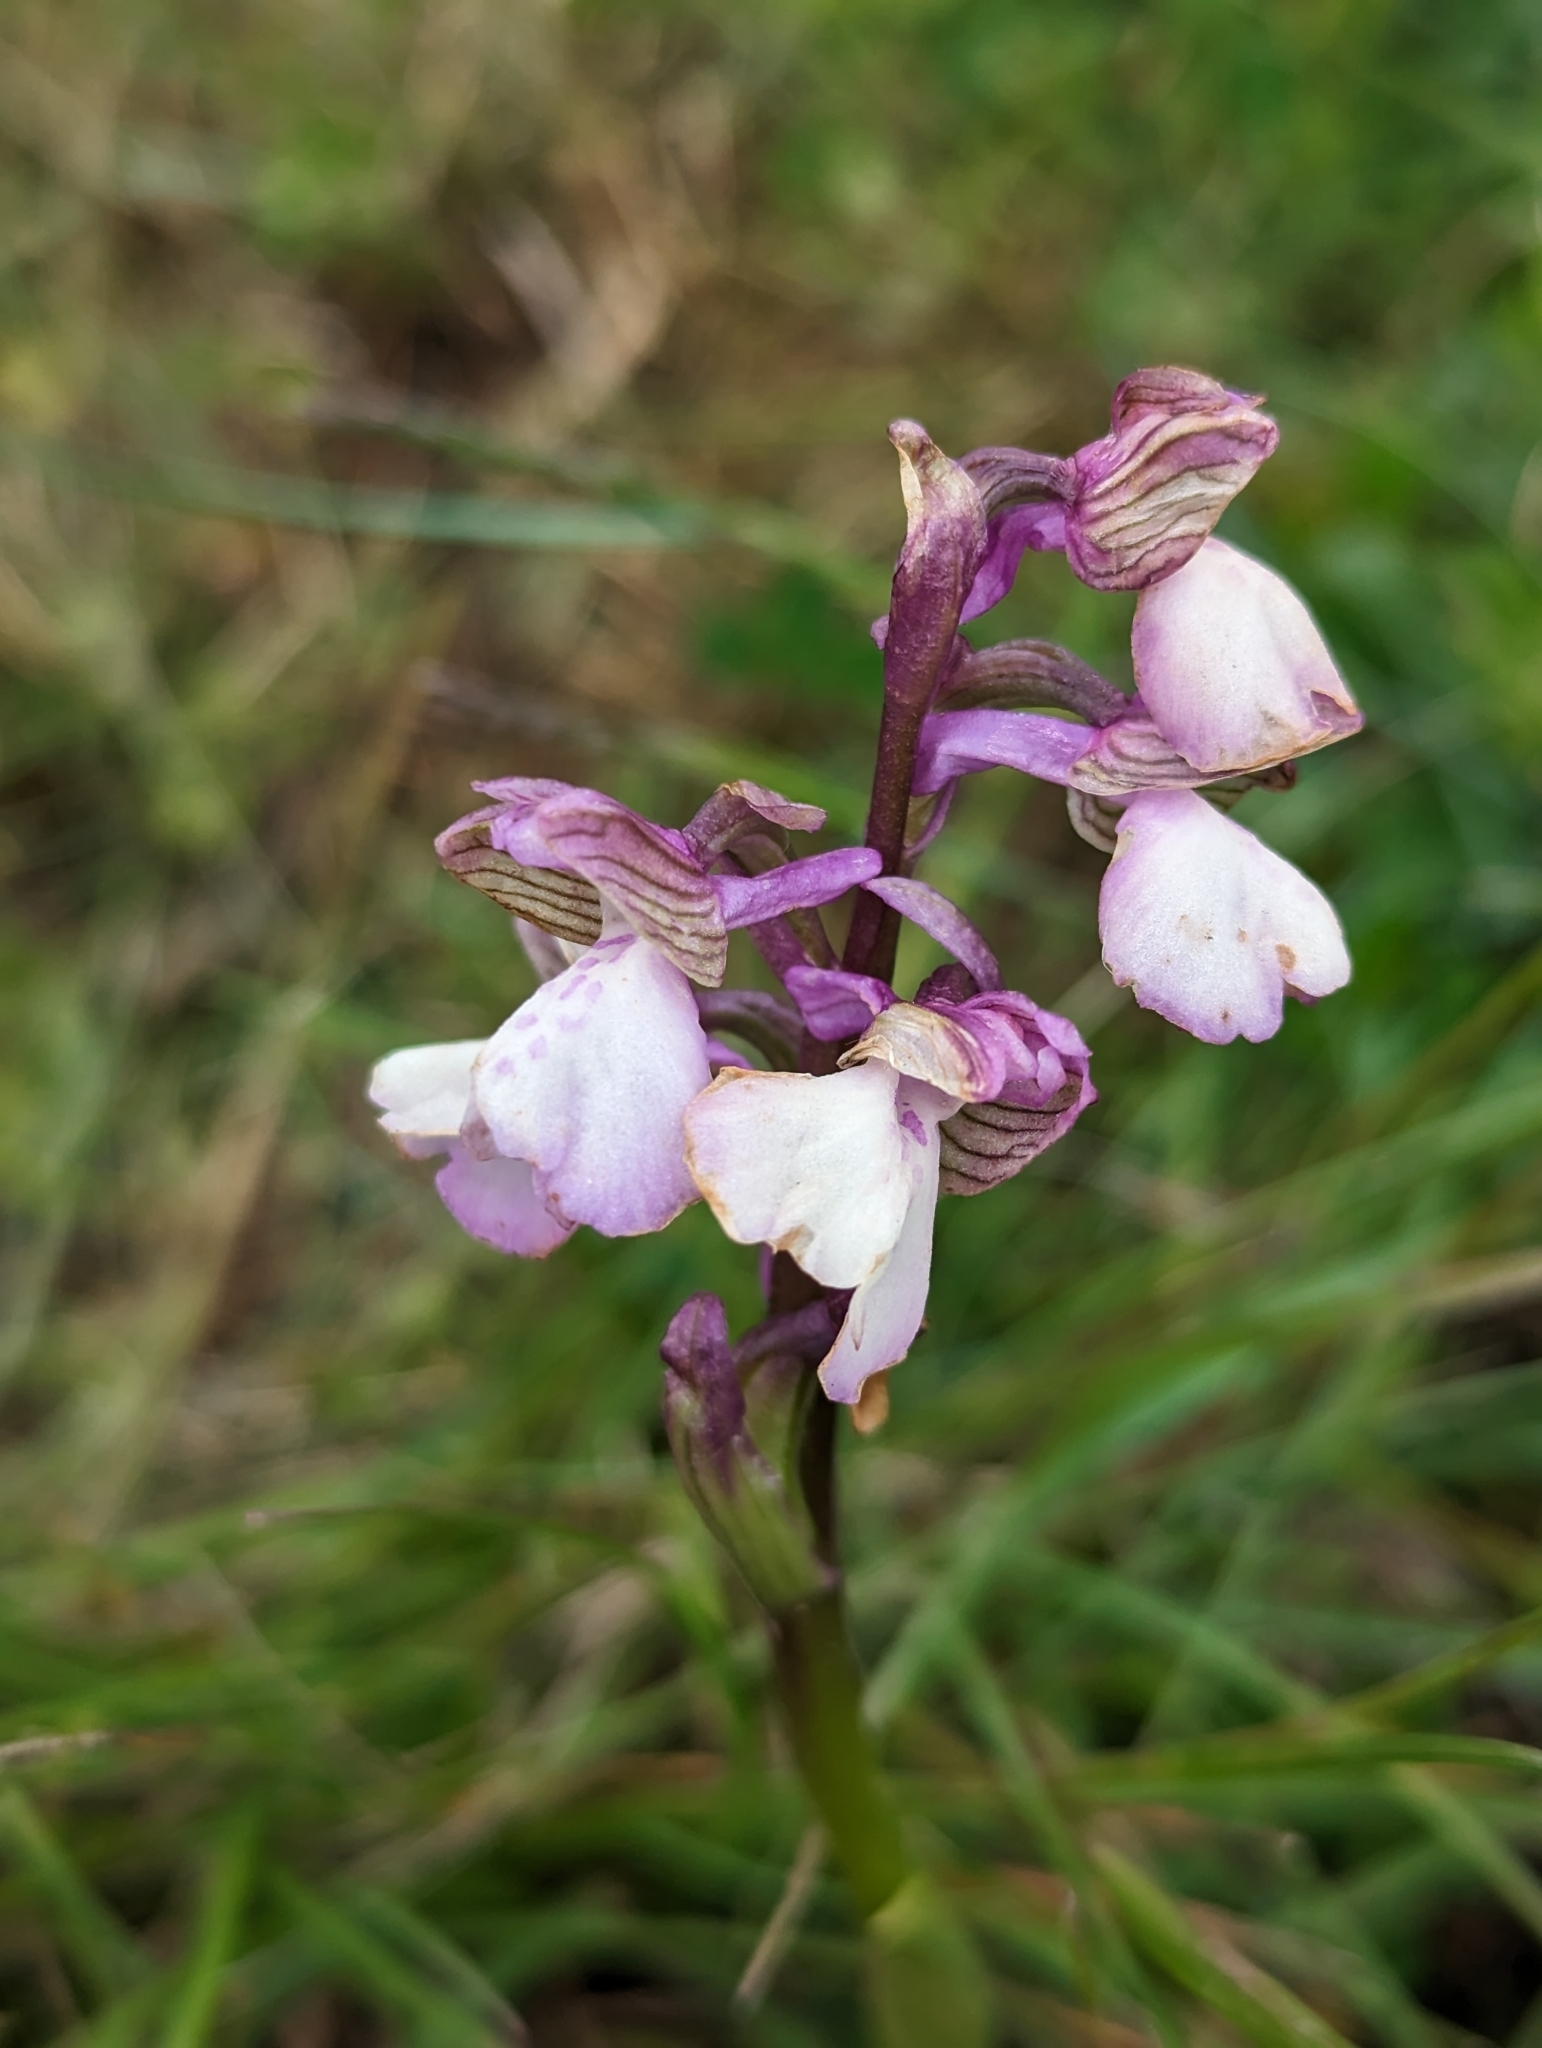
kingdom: Plantae
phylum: Tracheophyta
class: Liliopsida
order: Asparagales
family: Orchidaceae
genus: Anacamptis
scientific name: Anacamptis morio
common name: Green-winged orchid
